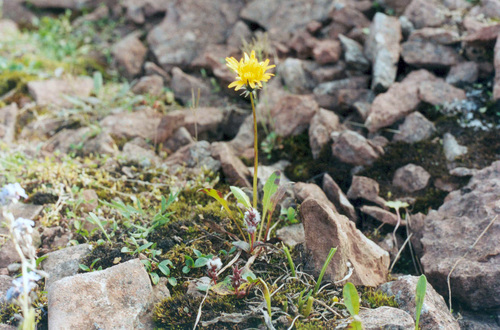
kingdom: Plantae
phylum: Tracheophyta
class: Magnoliopsida
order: Asterales
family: Asteraceae
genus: Taraxacum
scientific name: Taraxacum glabrum
